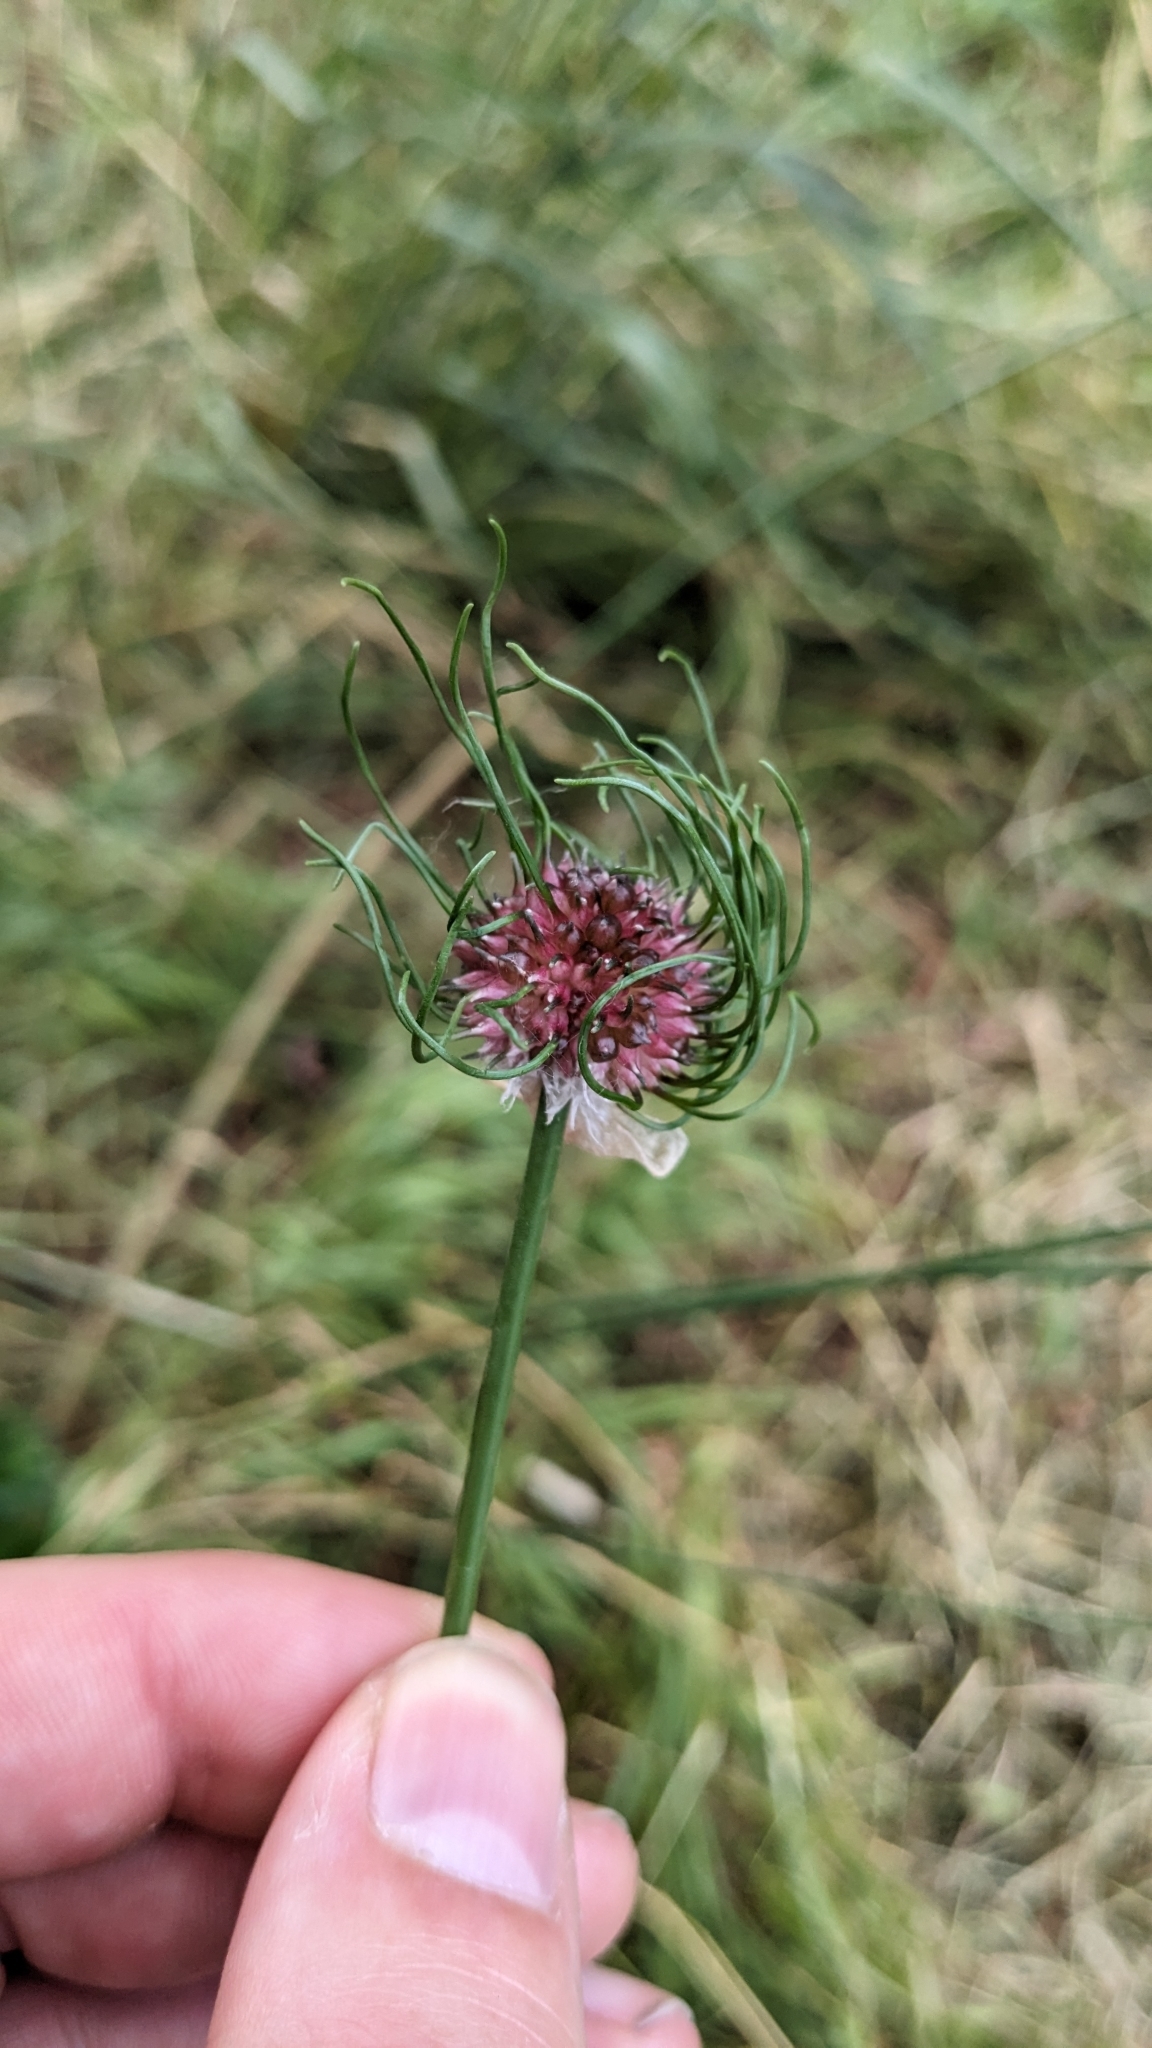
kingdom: Plantae
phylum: Tracheophyta
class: Liliopsida
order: Asparagales
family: Amaryllidaceae
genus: Allium
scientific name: Allium vineale
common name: Crow garlic
